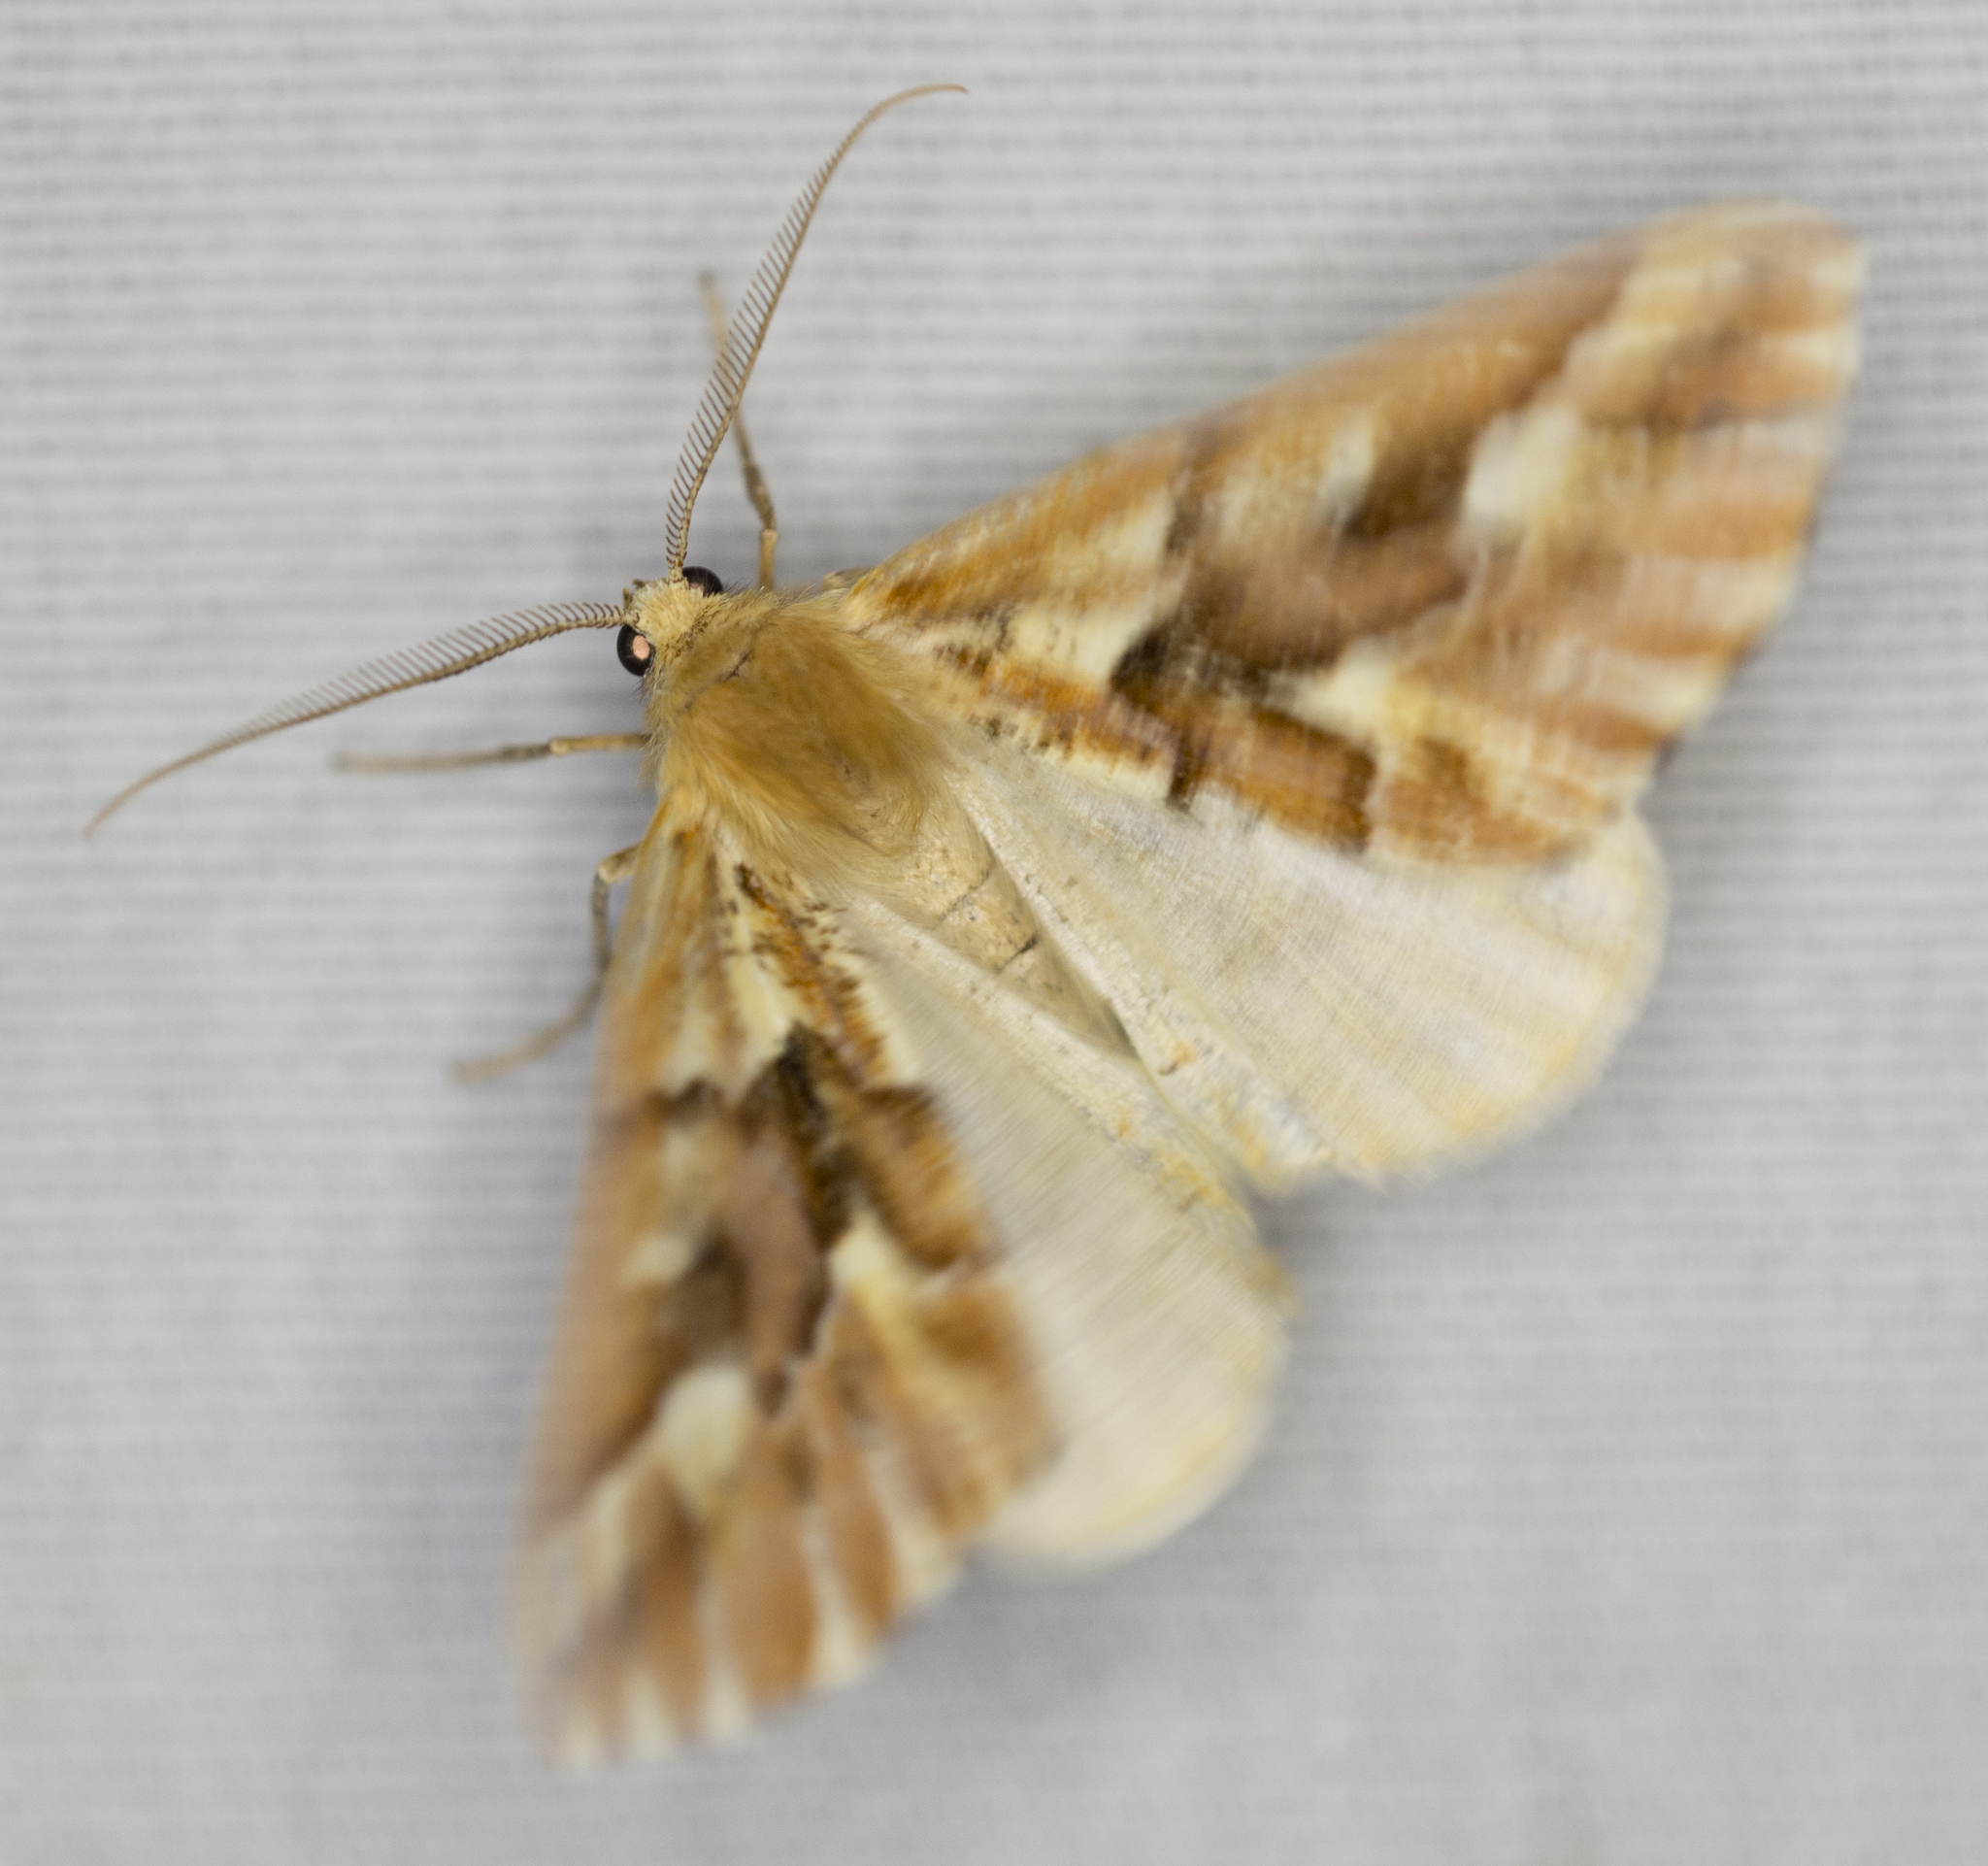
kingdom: Animalia
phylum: Arthropoda
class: Insecta
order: Lepidoptera
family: Geometridae
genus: Caripeta
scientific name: Caripeta aequaliaria
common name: Red girdle moth
